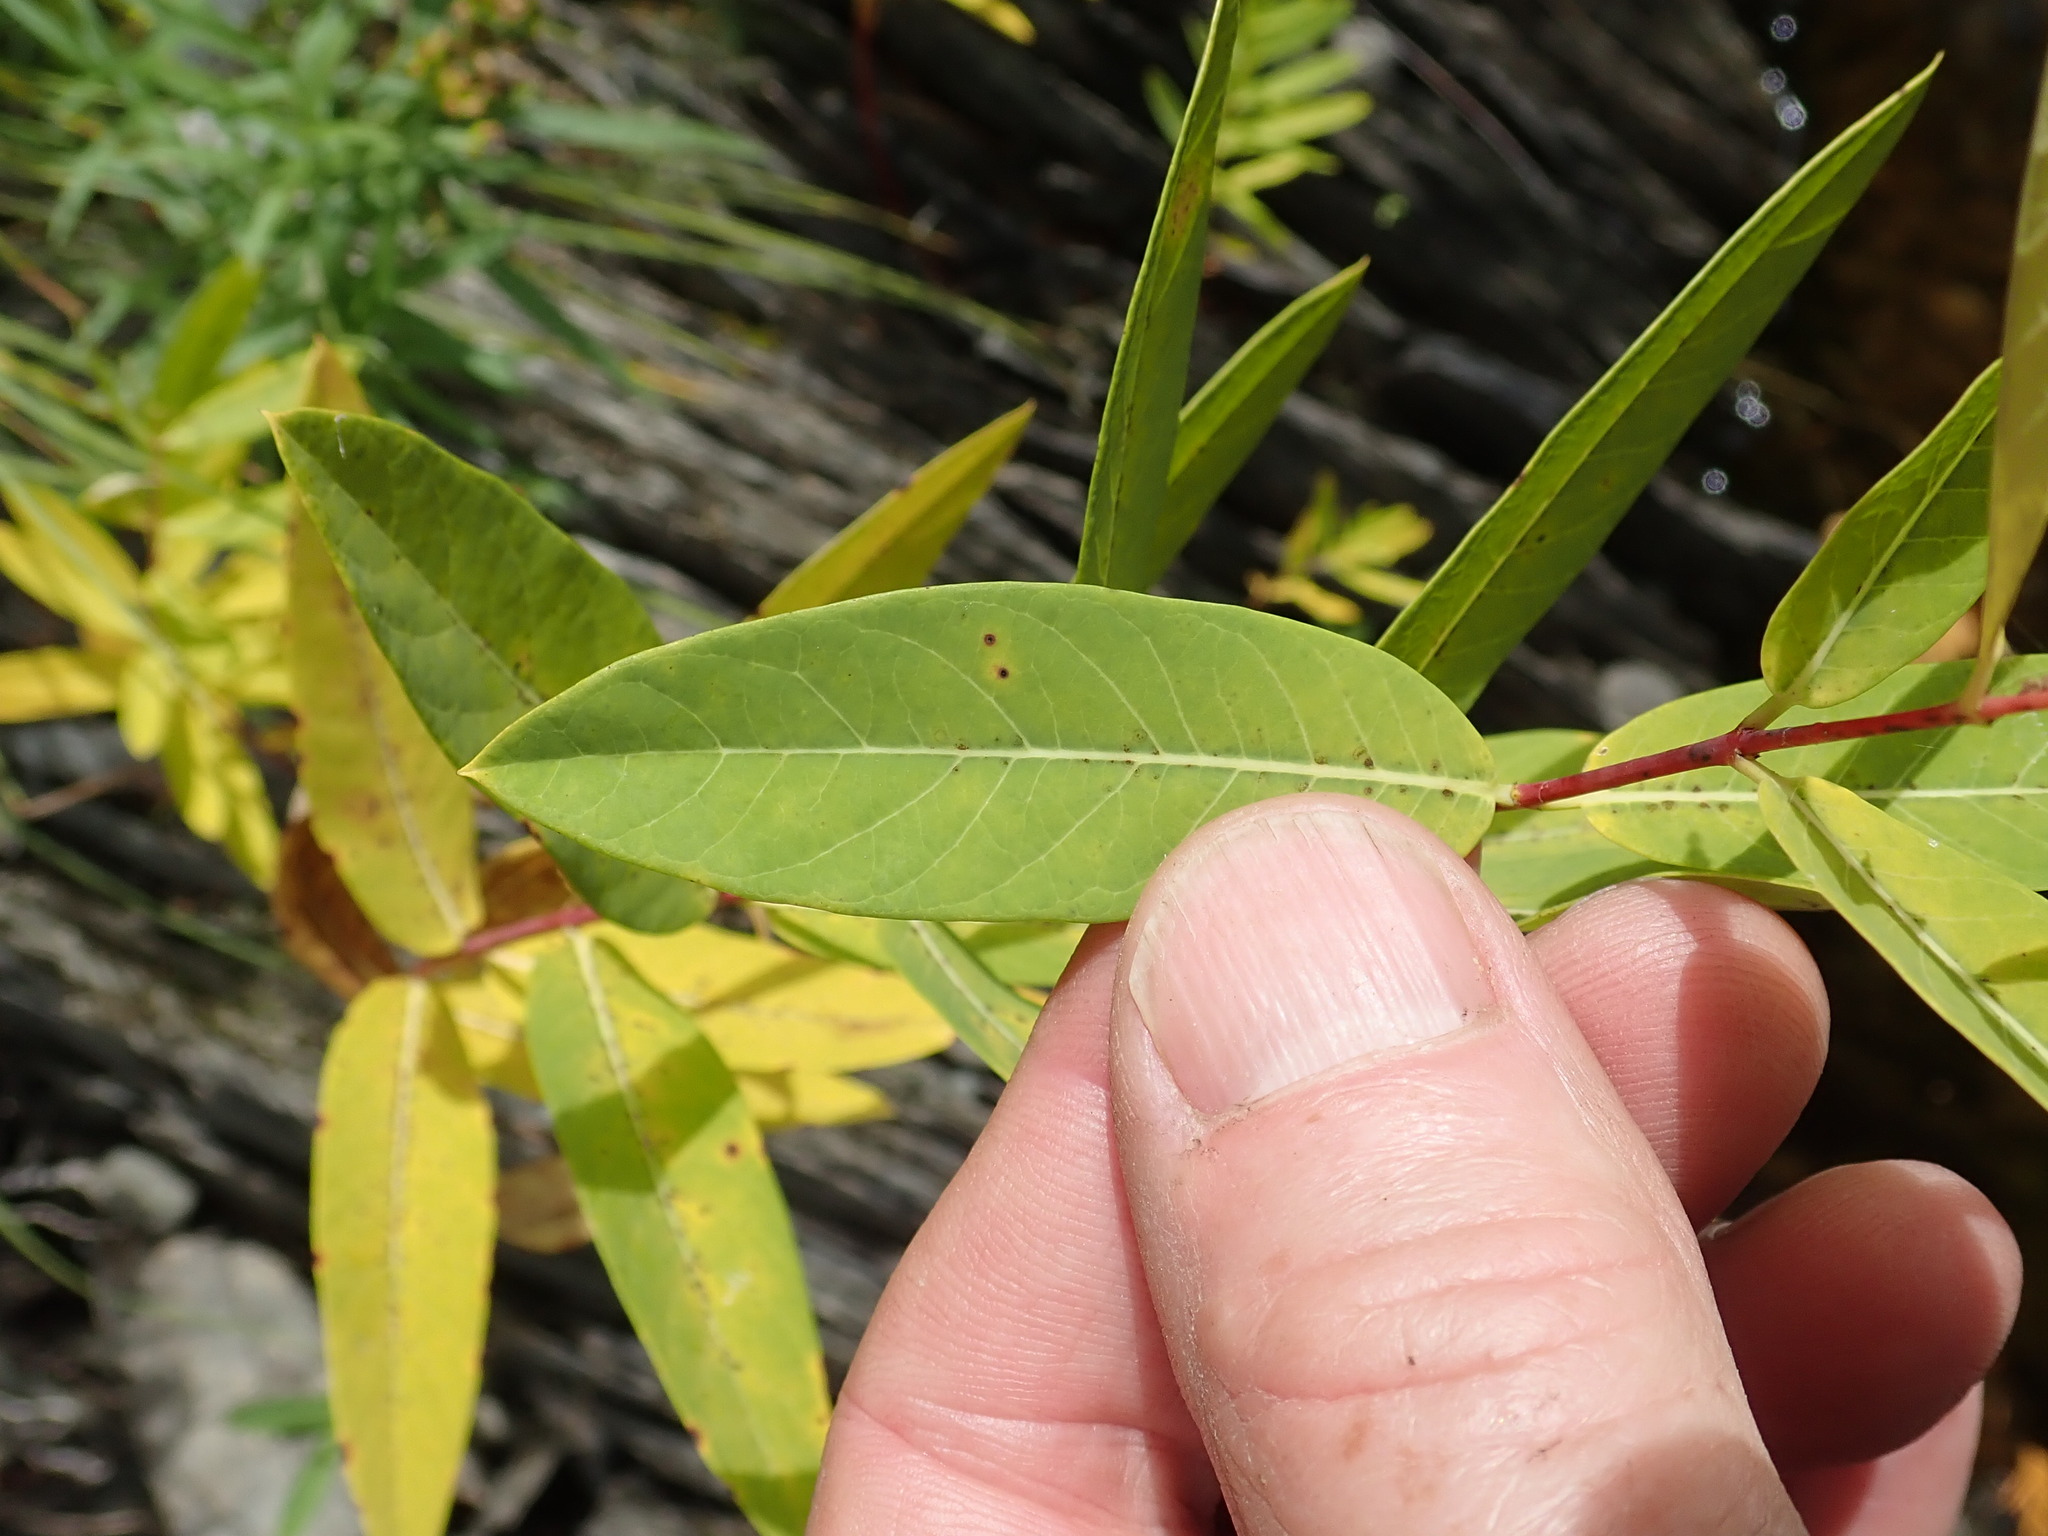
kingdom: Plantae
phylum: Tracheophyta
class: Magnoliopsida
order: Gentianales
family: Apocynaceae
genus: Apocynum
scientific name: Apocynum cannabinum
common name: Hemp dogbane
